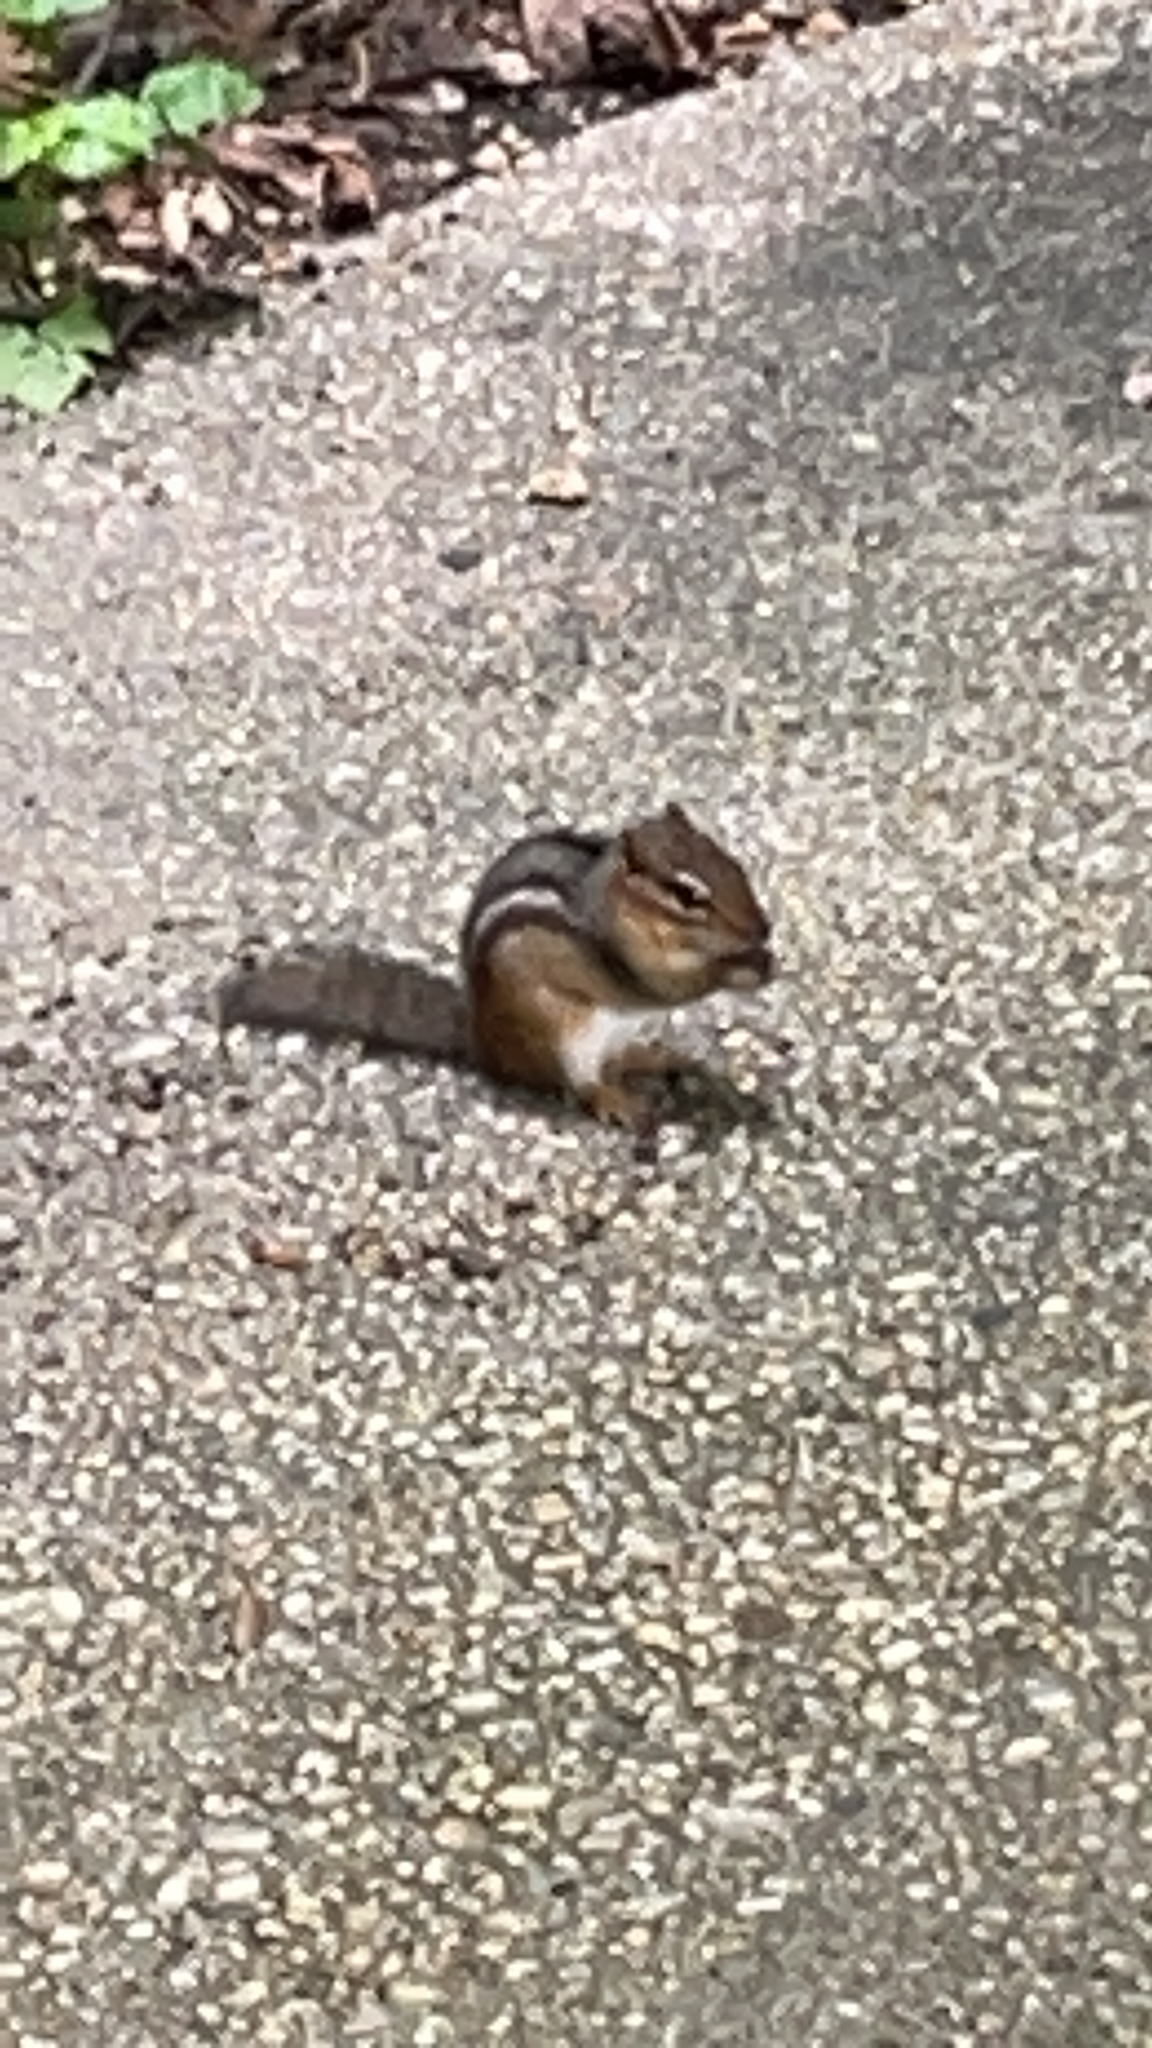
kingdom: Animalia
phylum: Chordata
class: Mammalia
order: Rodentia
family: Sciuridae
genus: Tamias
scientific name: Tamias striatus
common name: Eastern chipmunk
